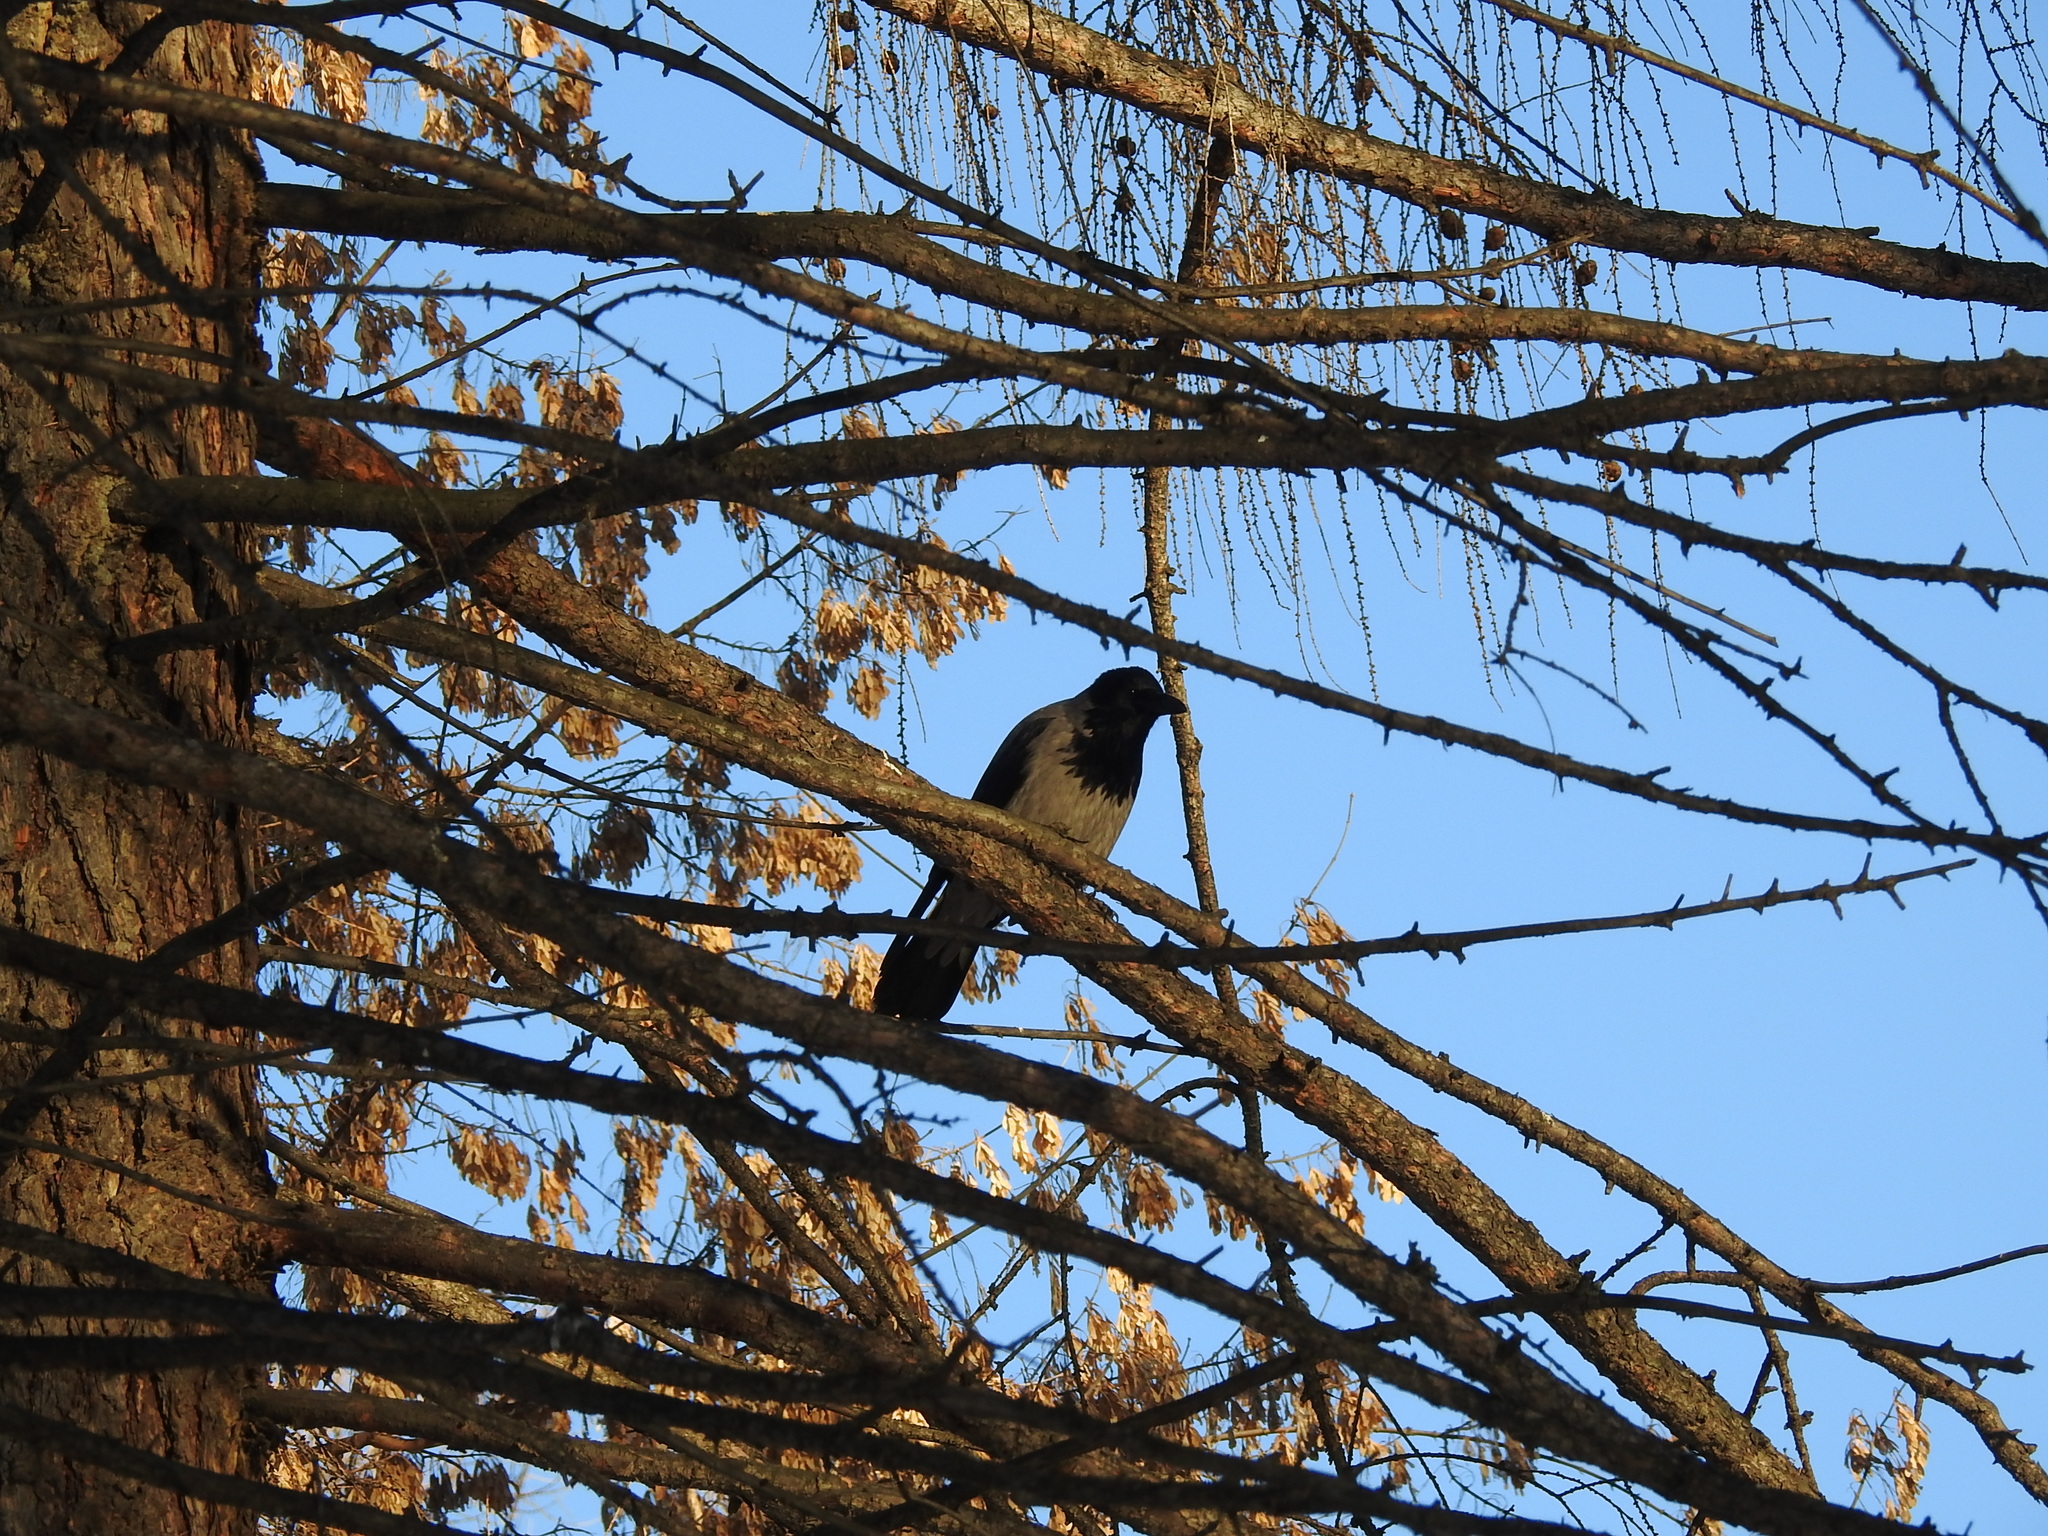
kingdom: Animalia
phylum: Chordata
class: Aves
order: Passeriformes
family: Corvidae
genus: Corvus
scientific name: Corvus cornix
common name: Hooded crow
